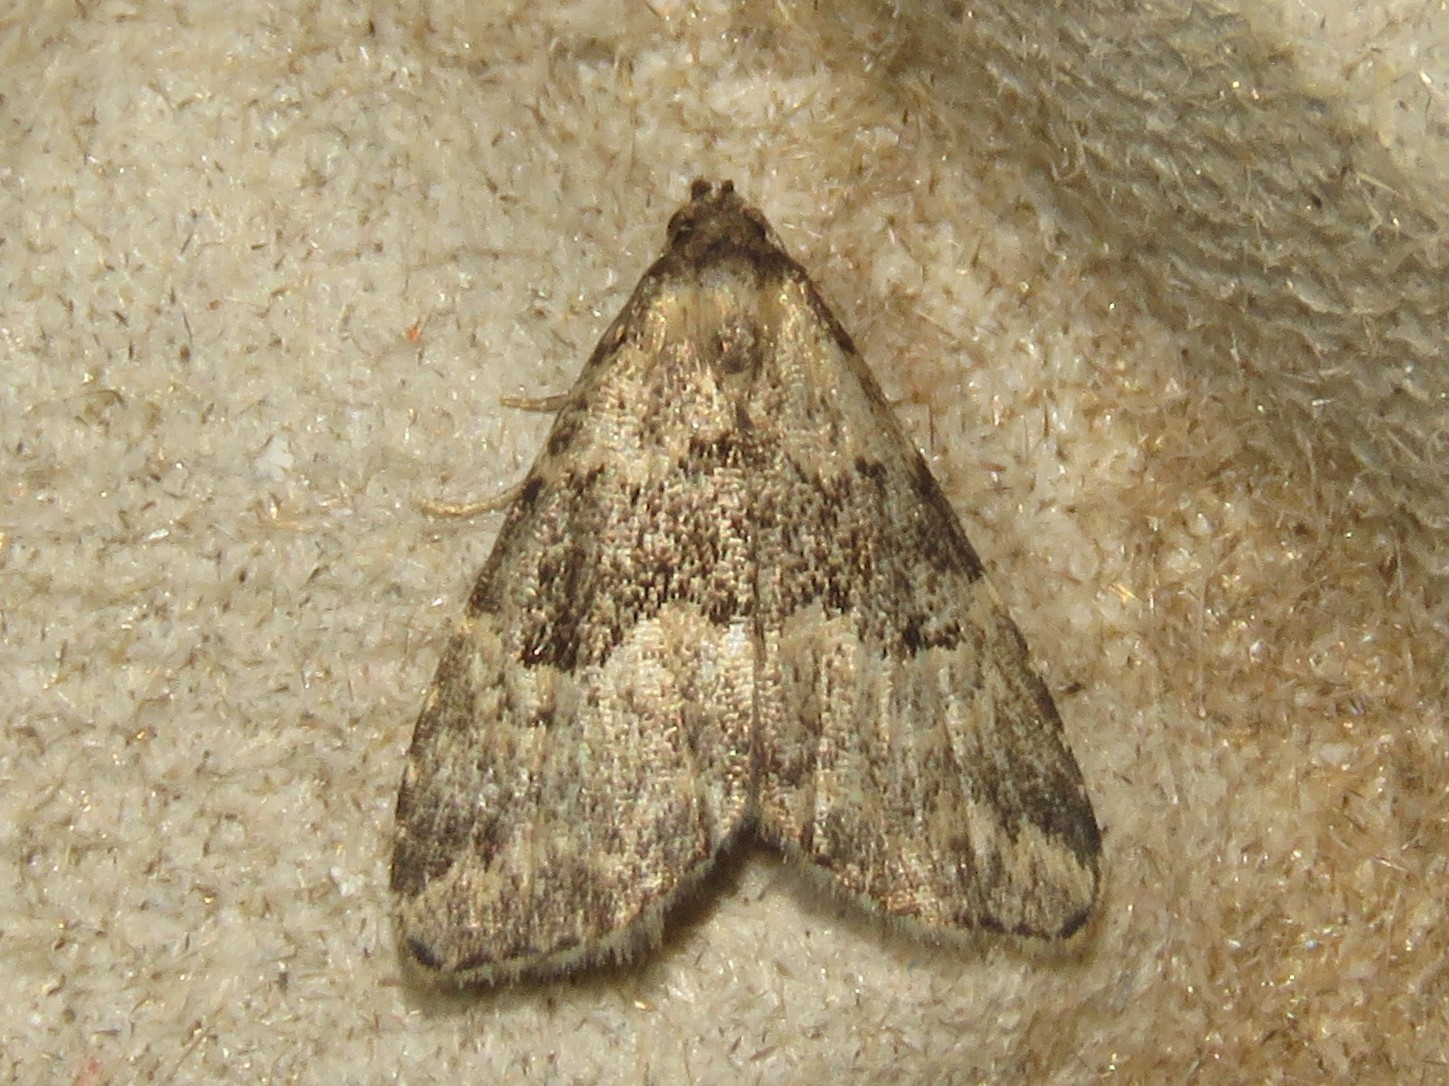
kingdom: Animalia
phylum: Arthropoda
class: Insecta
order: Lepidoptera
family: Erebidae
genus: Dyspyralis
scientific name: Dyspyralis illocata
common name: Visitation moth
